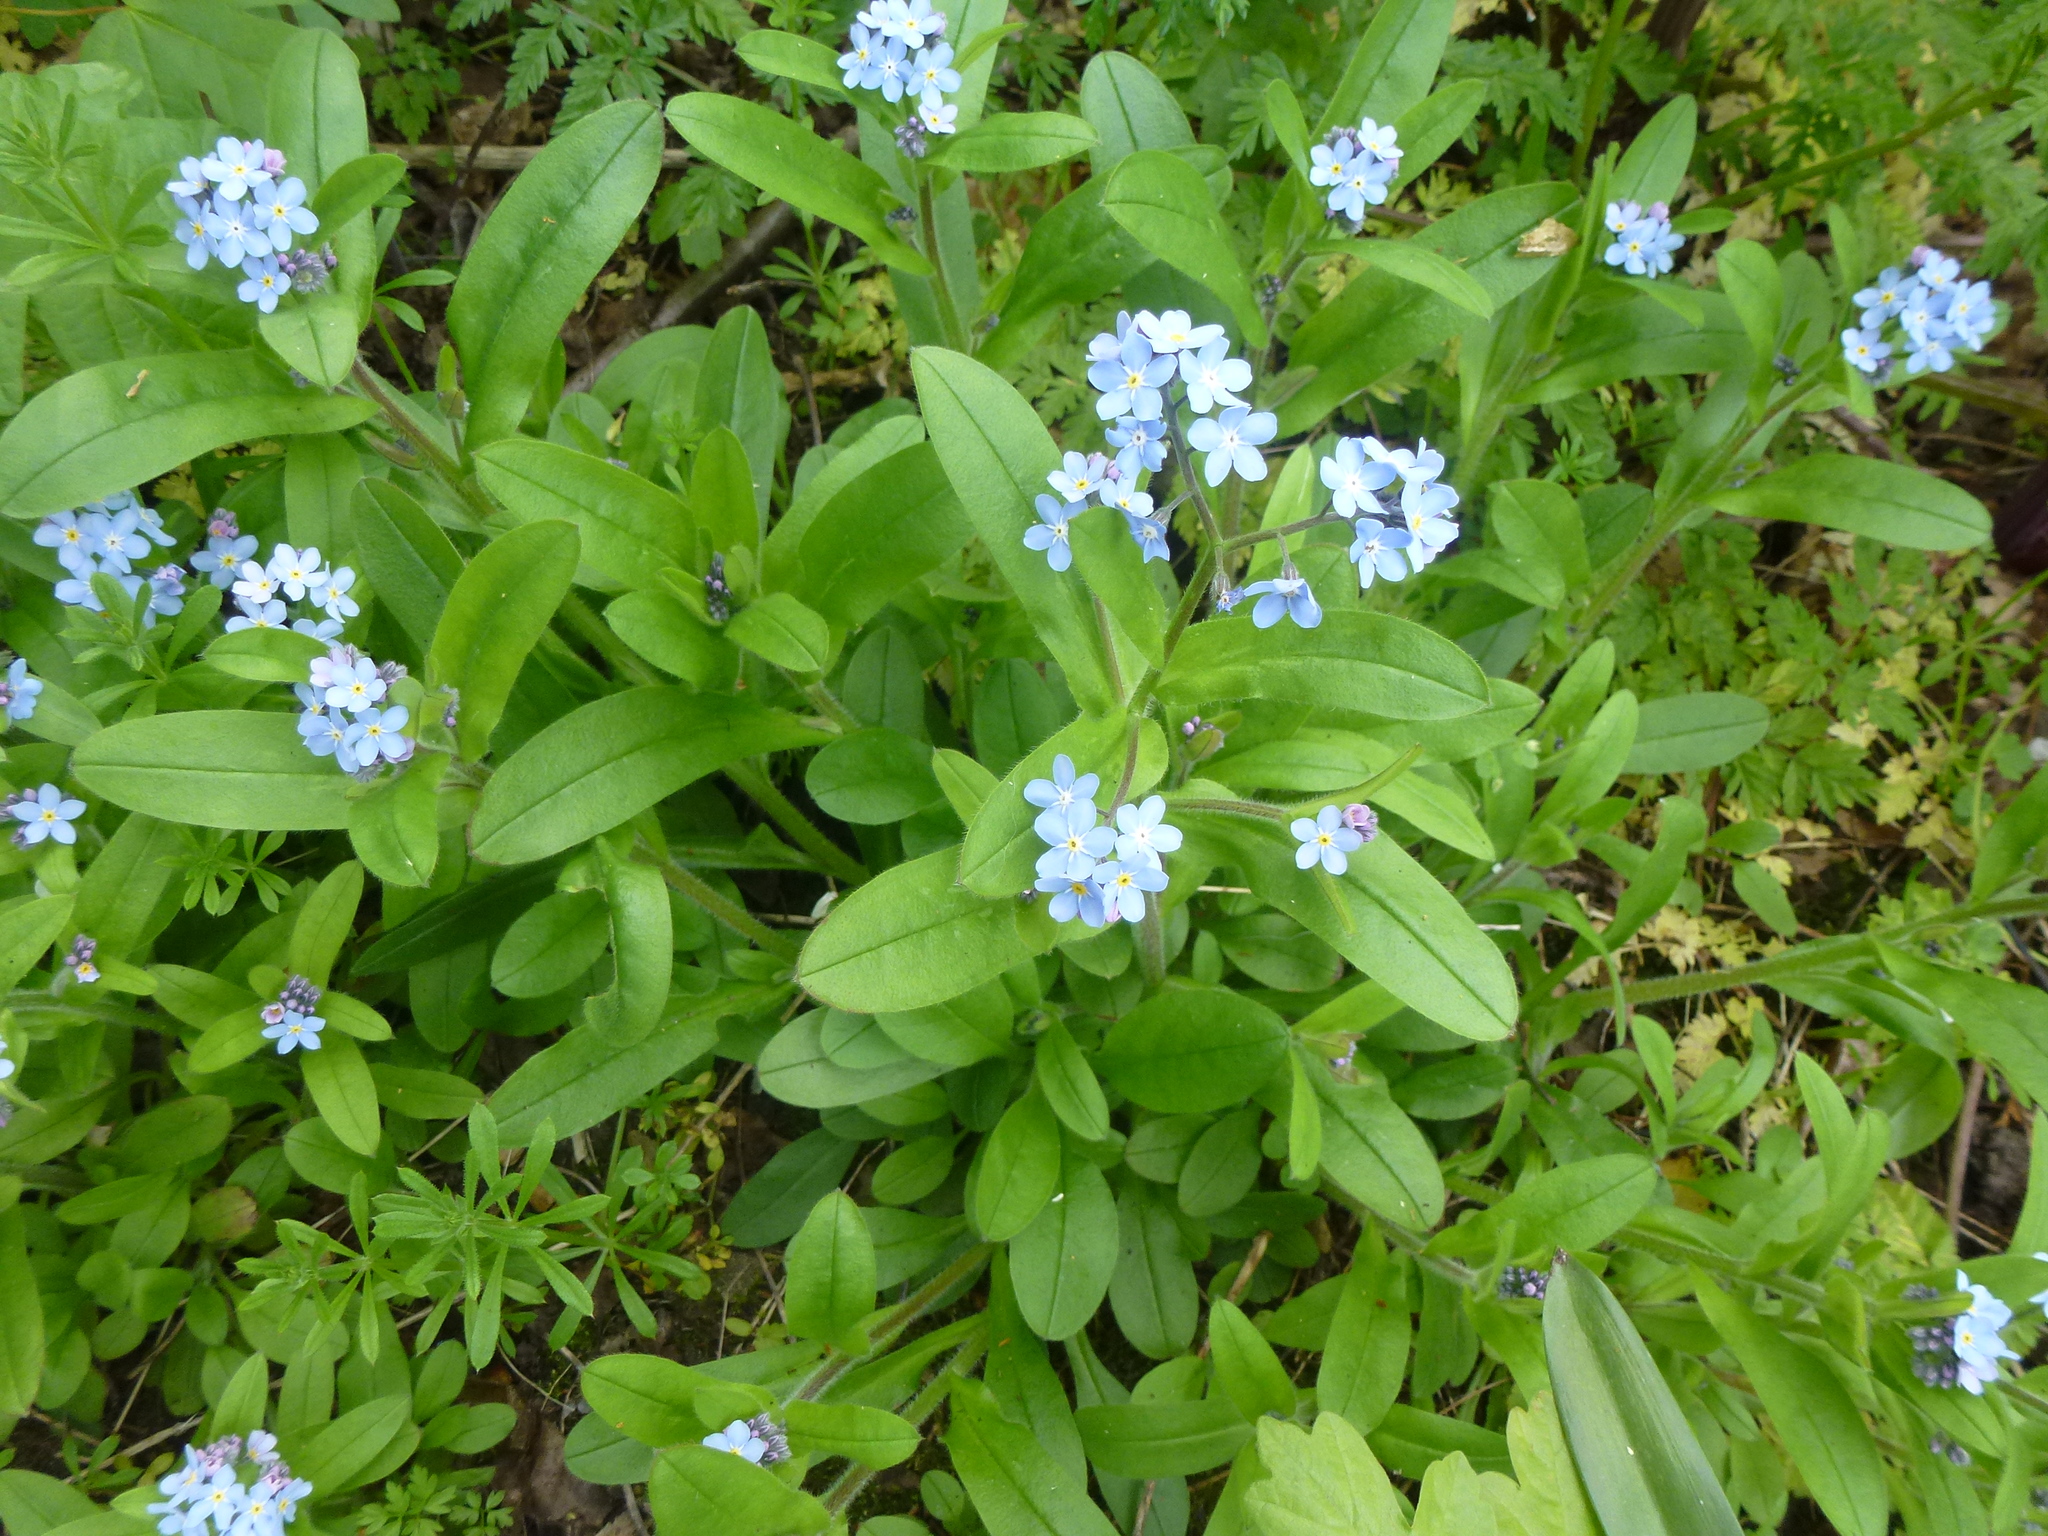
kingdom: Plantae
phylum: Tracheophyta
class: Magnoliopsida
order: Boraginales
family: Boraginaceae
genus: Myosotis
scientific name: Myosotis sylvatica
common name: Wood forget-me-not
